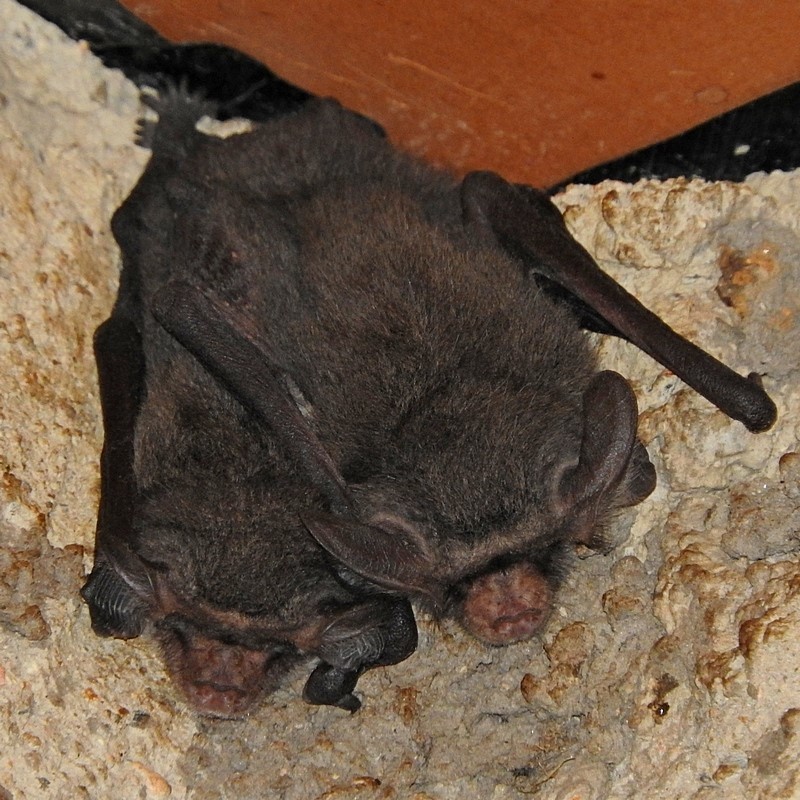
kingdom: Animalia
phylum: Chordata
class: Mammalia
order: Chiroptera
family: Vespertilionidae
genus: Nyctophilus
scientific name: Nyctophilus geoffroyi
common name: Lesser long-eared bat
